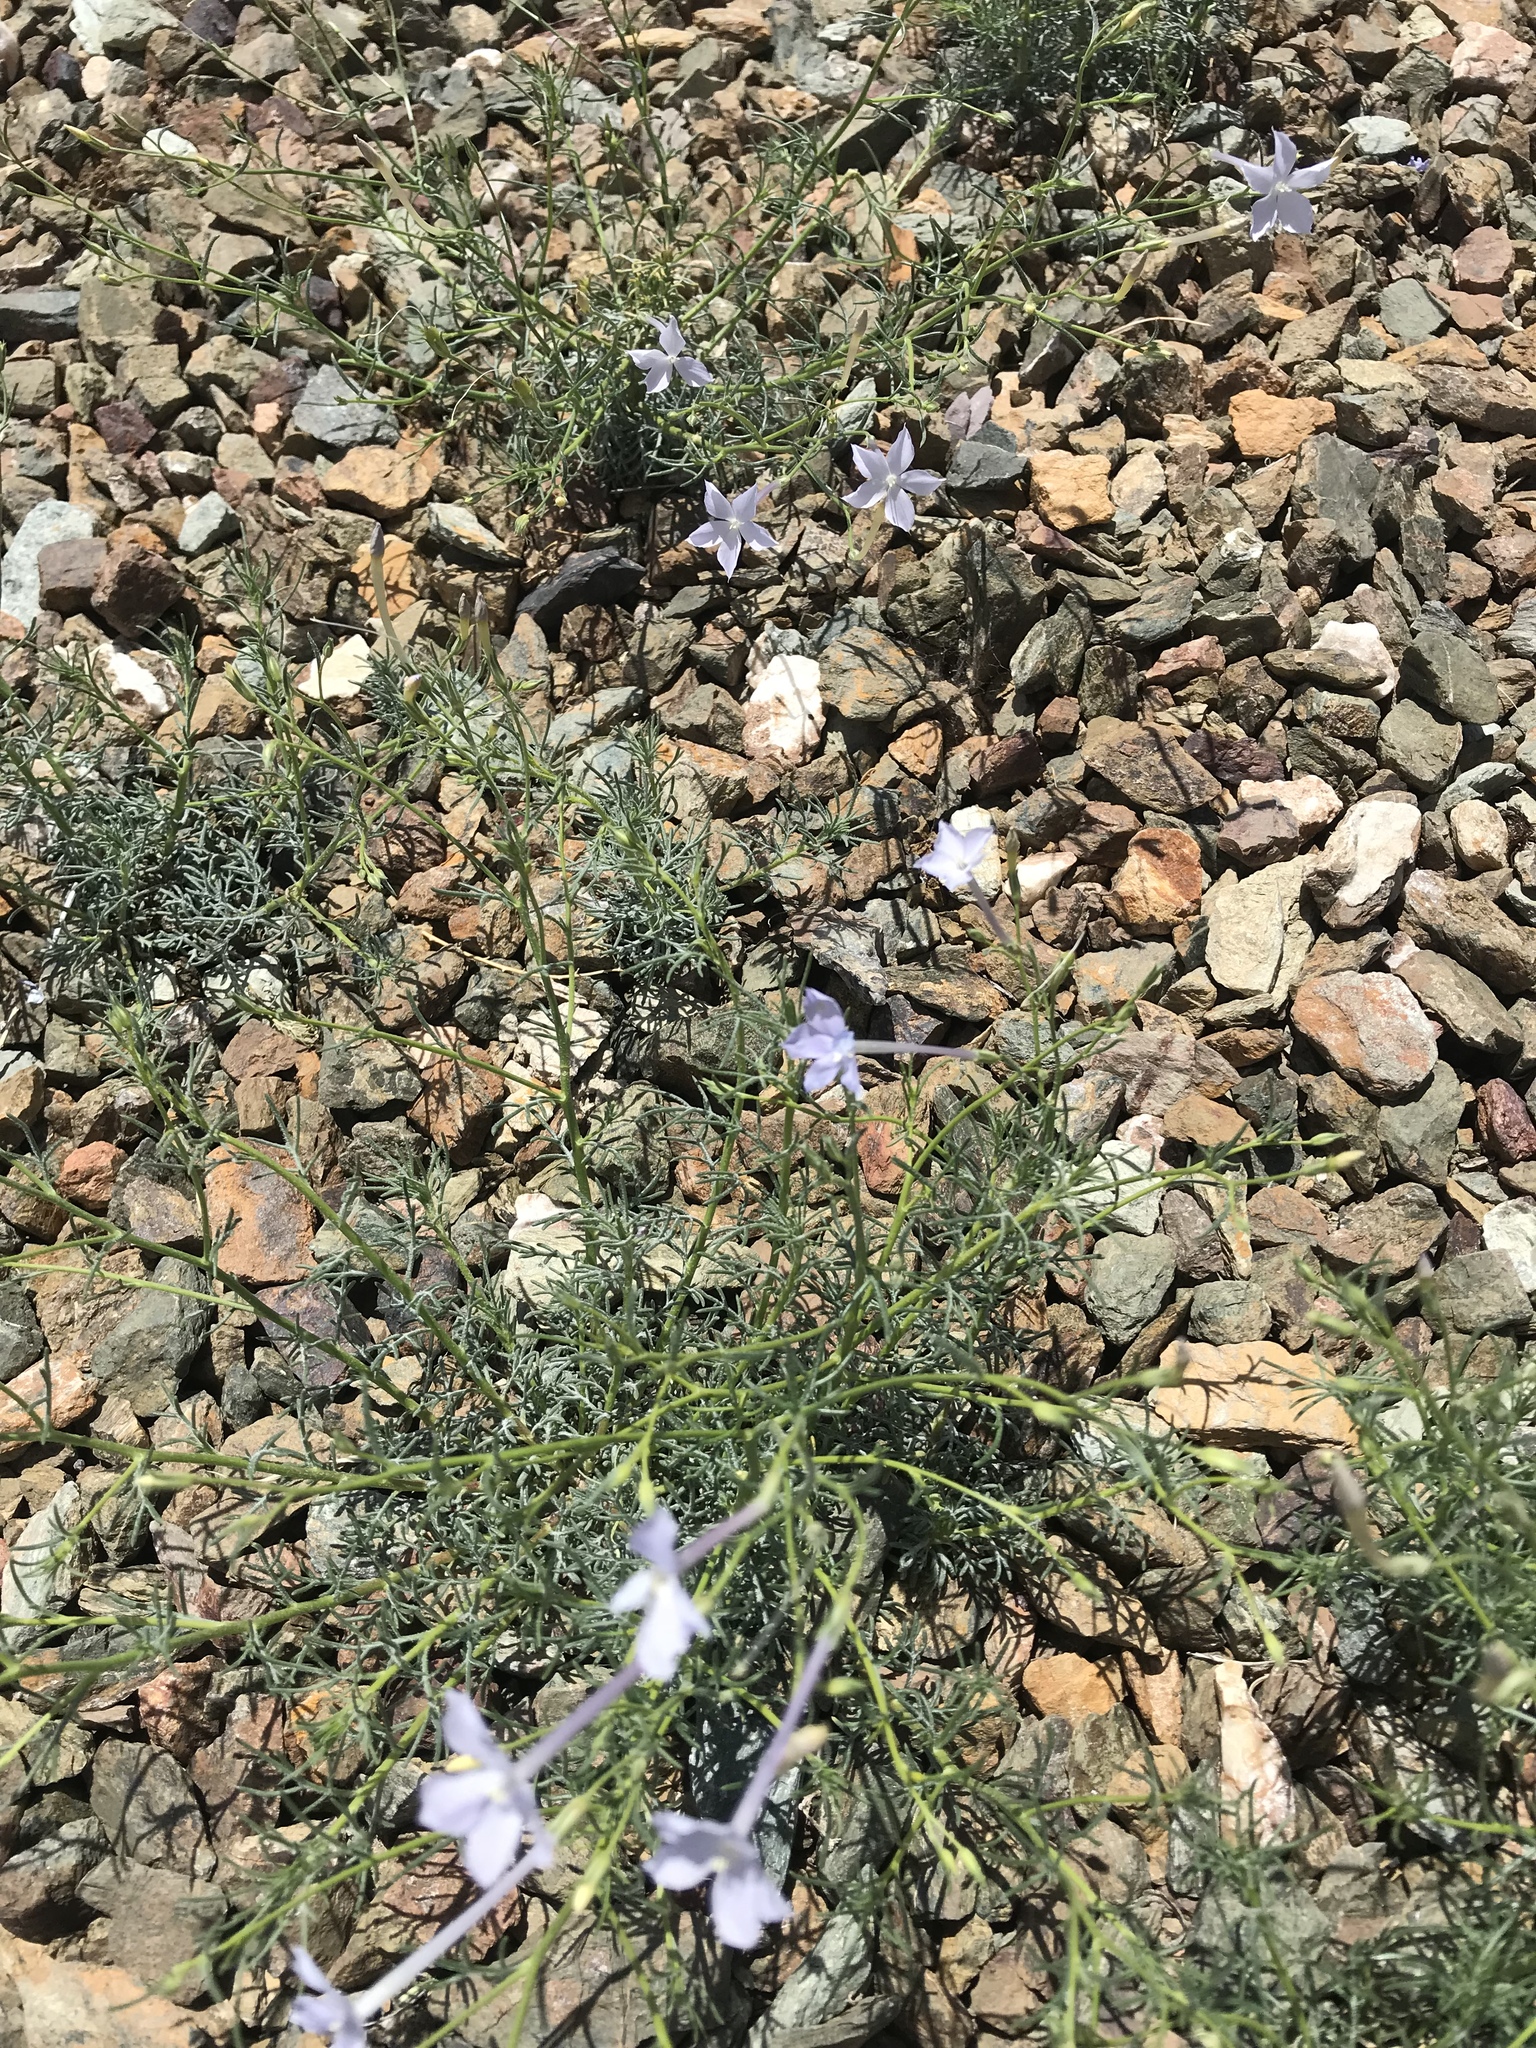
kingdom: Plantae
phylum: Tracheophyta
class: Magnoliopsida
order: Ericales
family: Polemoniaceae
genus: Ipomopsis
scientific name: Ipomopsis longiflora
